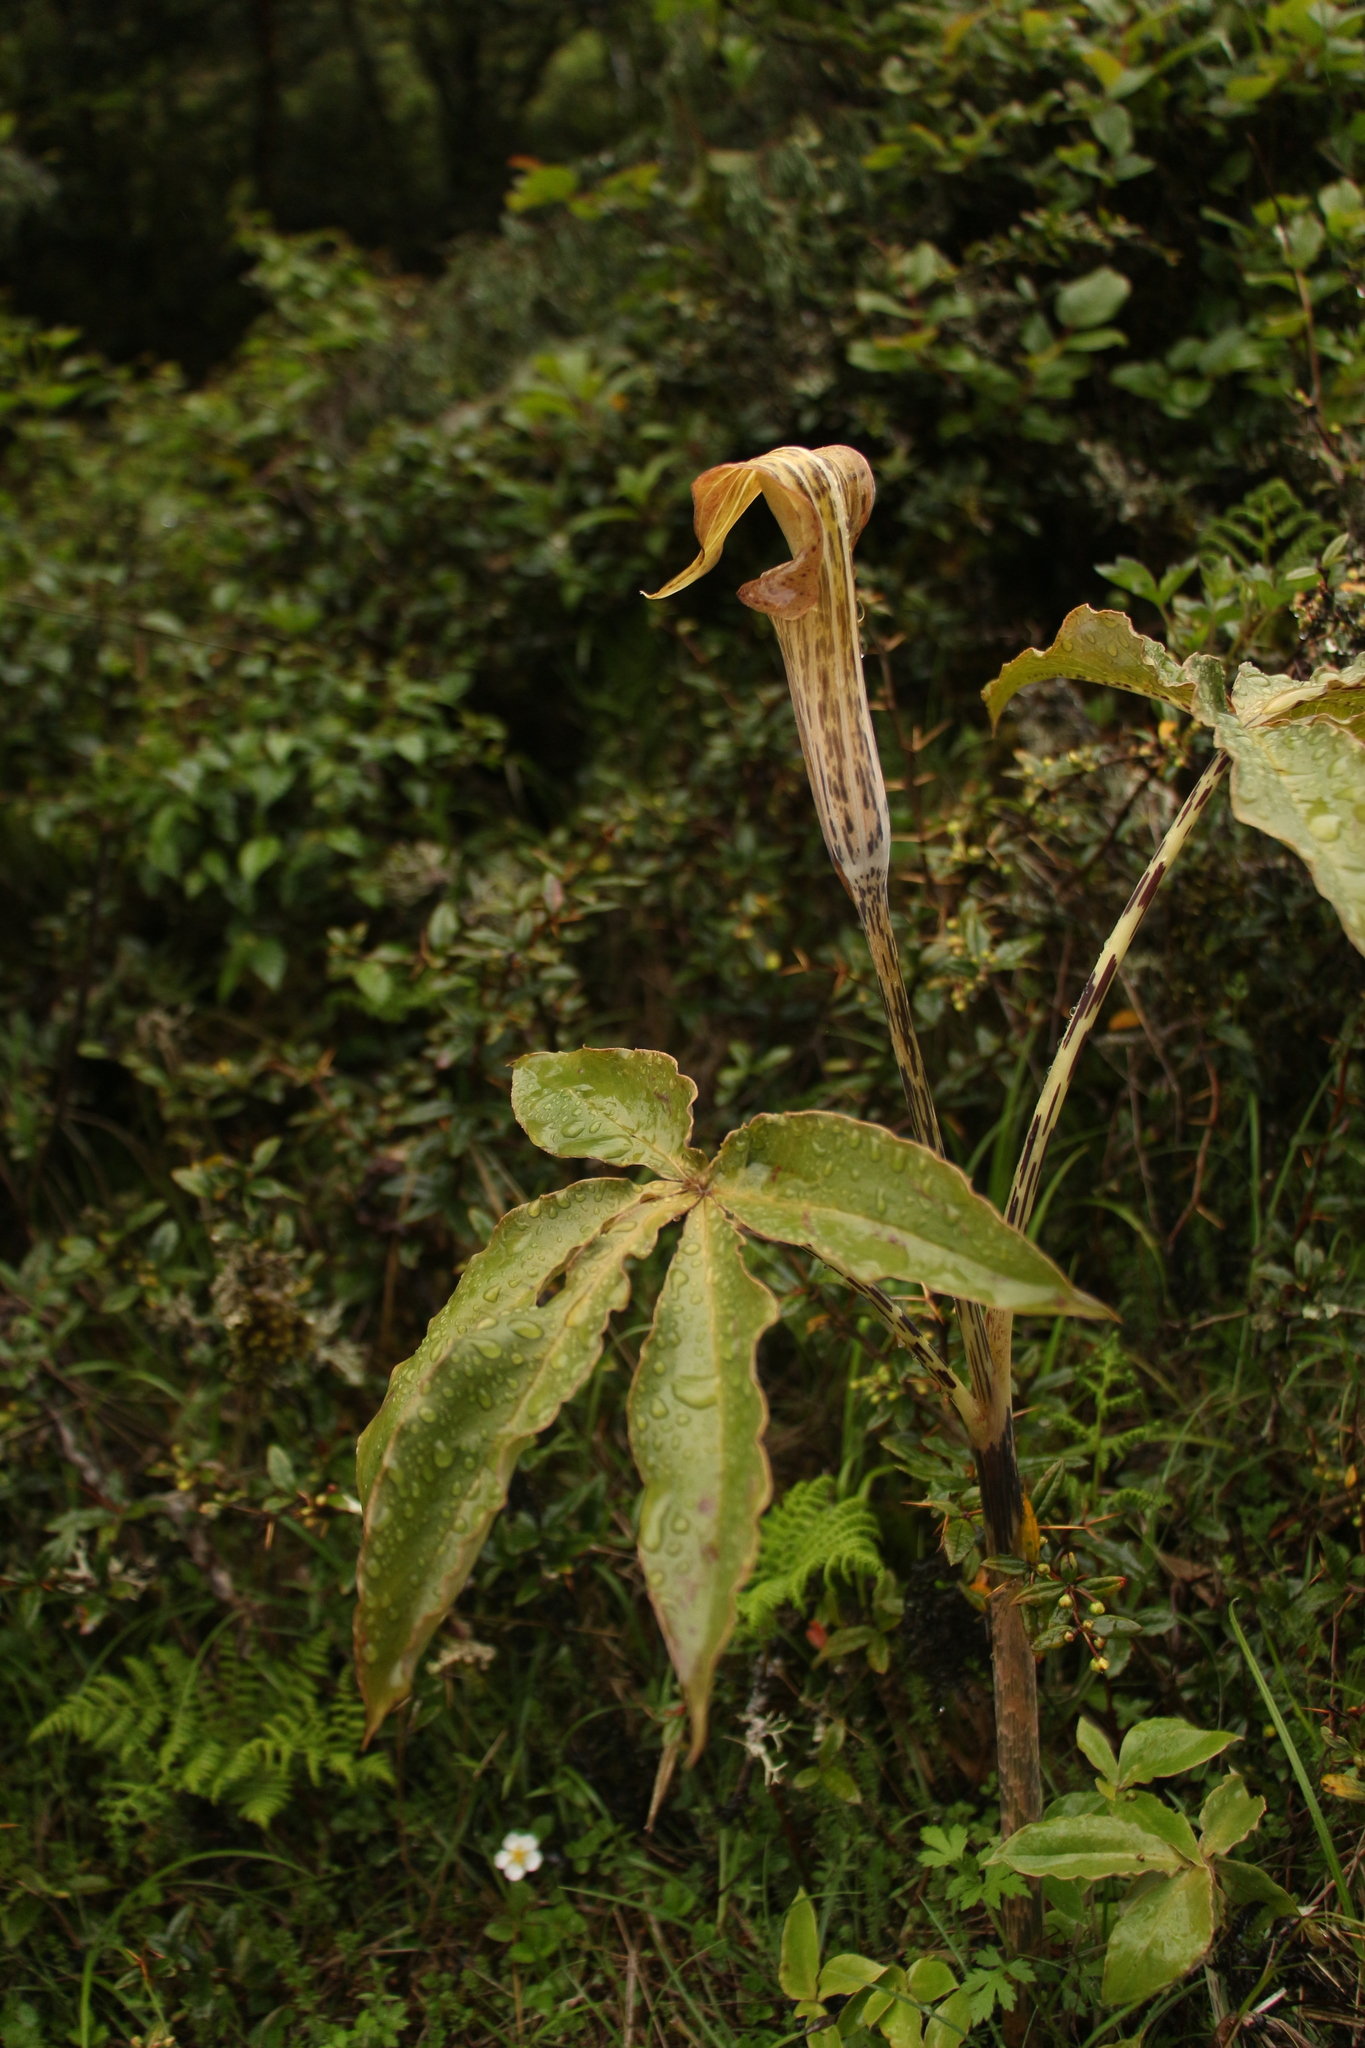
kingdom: Plantae
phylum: Tracheophyta
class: Liliopsida
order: Alismatales
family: Araceae
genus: Arisaema
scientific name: Arisaema nepenthoides
